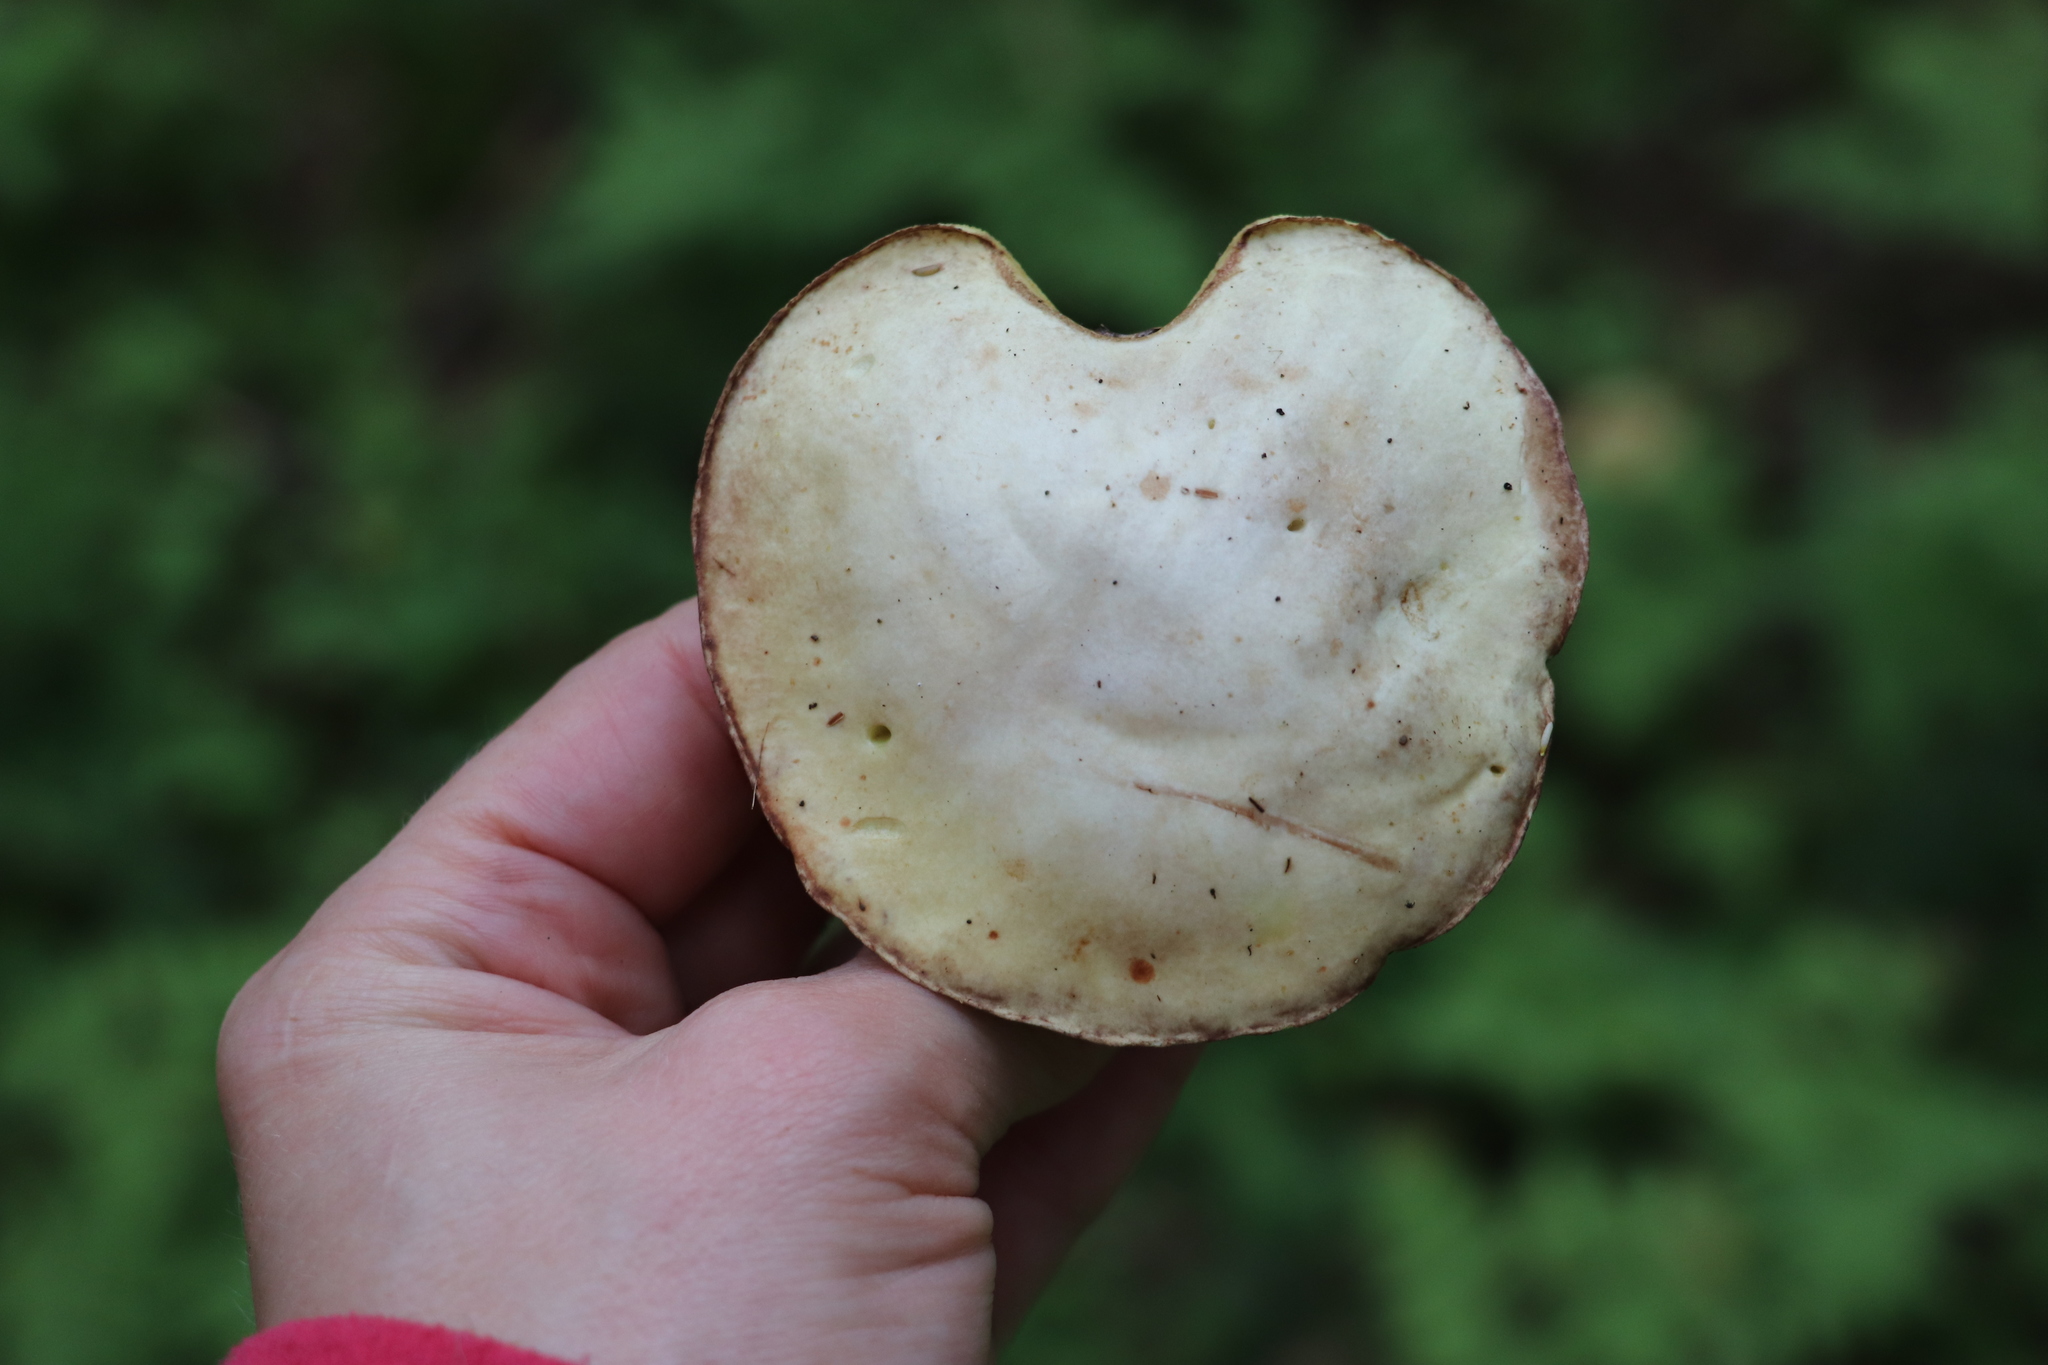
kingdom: Fungi
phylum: Basidiomycota
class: Agaricomycetes
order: Boletales
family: Suillaceae
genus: Suillus
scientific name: Suillus placidus
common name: Slippery white bolete
